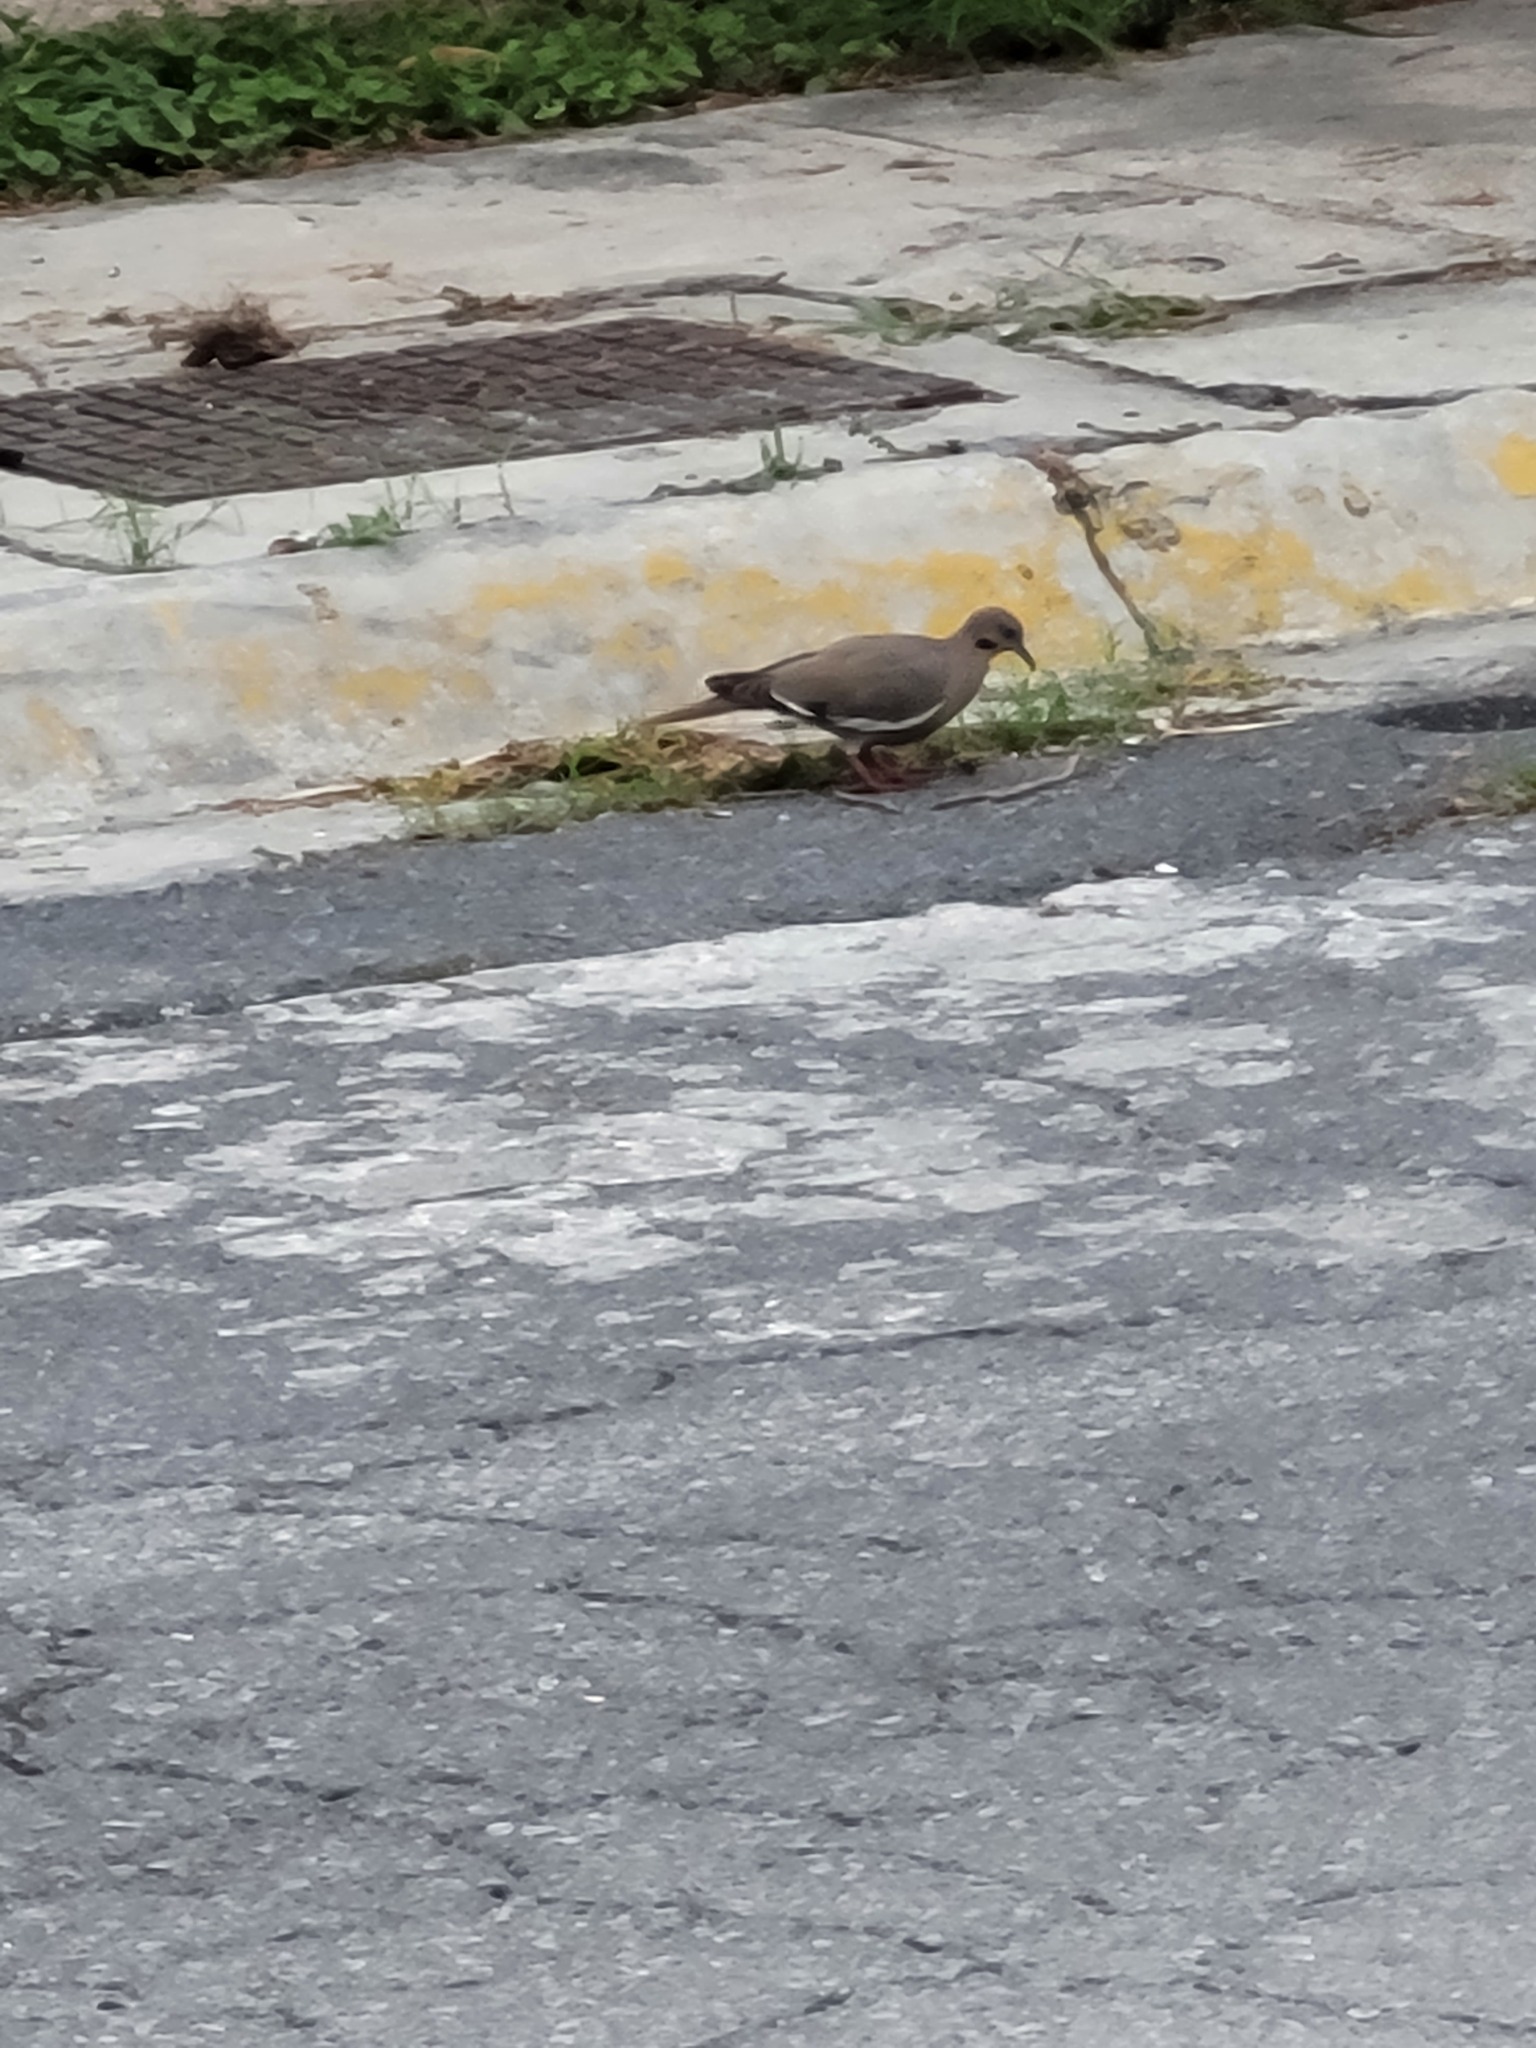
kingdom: Animalia
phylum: Chordata
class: Aves
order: Columbiformes
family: Columbidae
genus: Zenaida
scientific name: Zenaida asiatica
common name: White-winged dove
